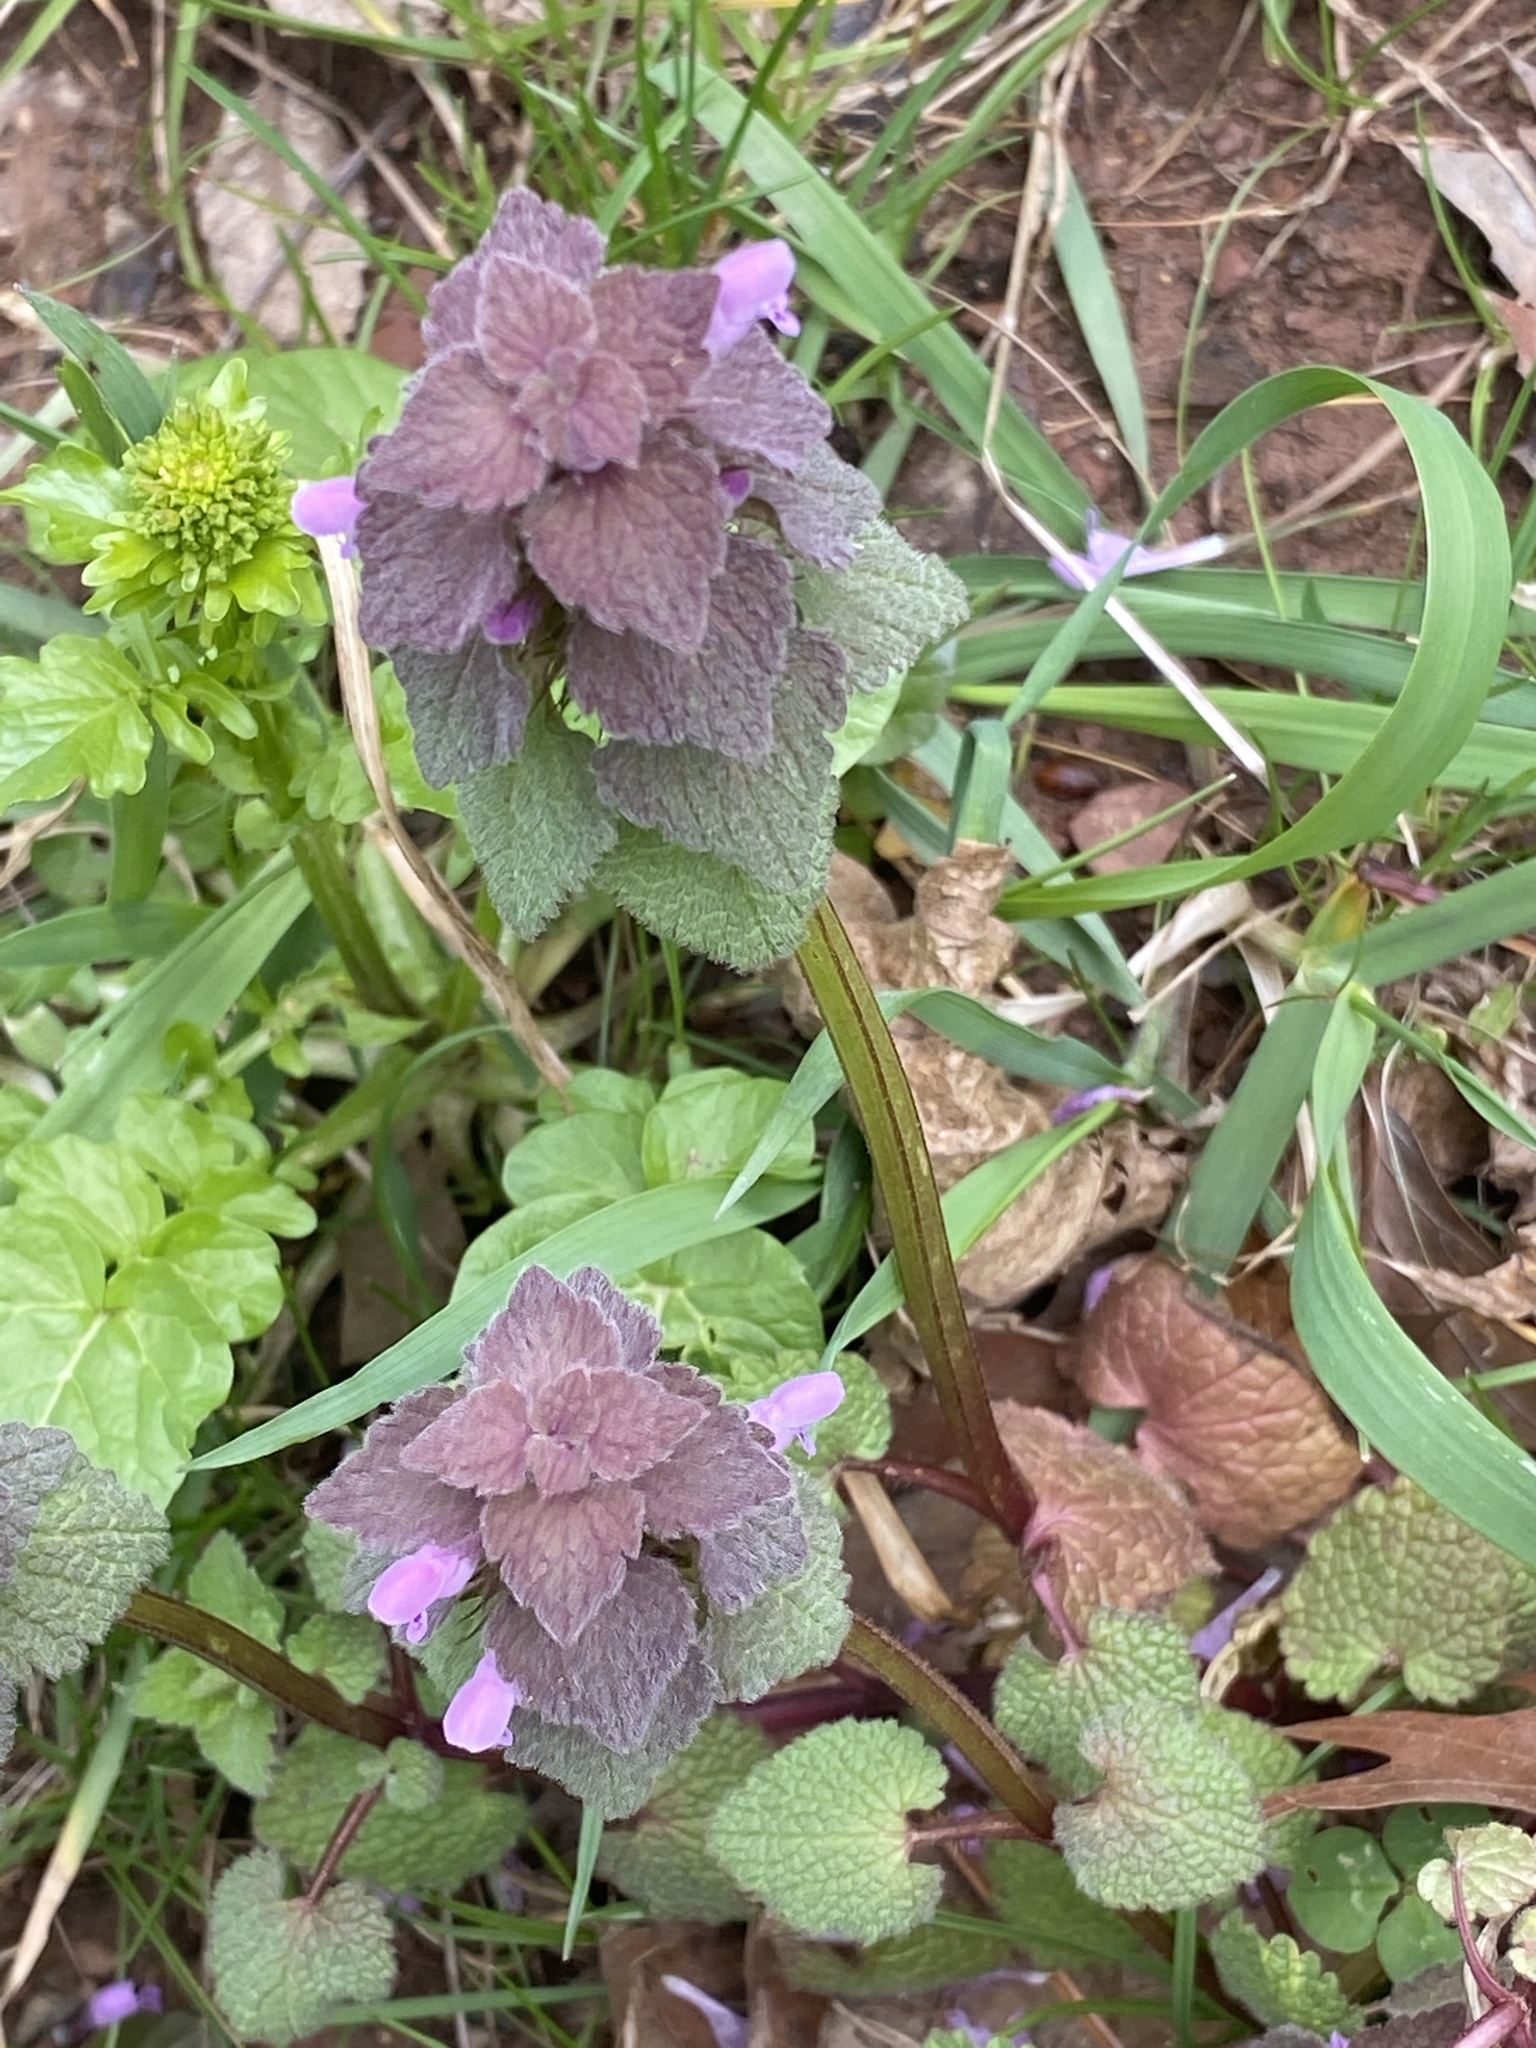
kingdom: Plantae
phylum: Tracheophyta
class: Magnoliopsida
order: Lamiales
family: Lamiaceae
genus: Lamium
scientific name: Lamium purpureum
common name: Red dead-nettle
